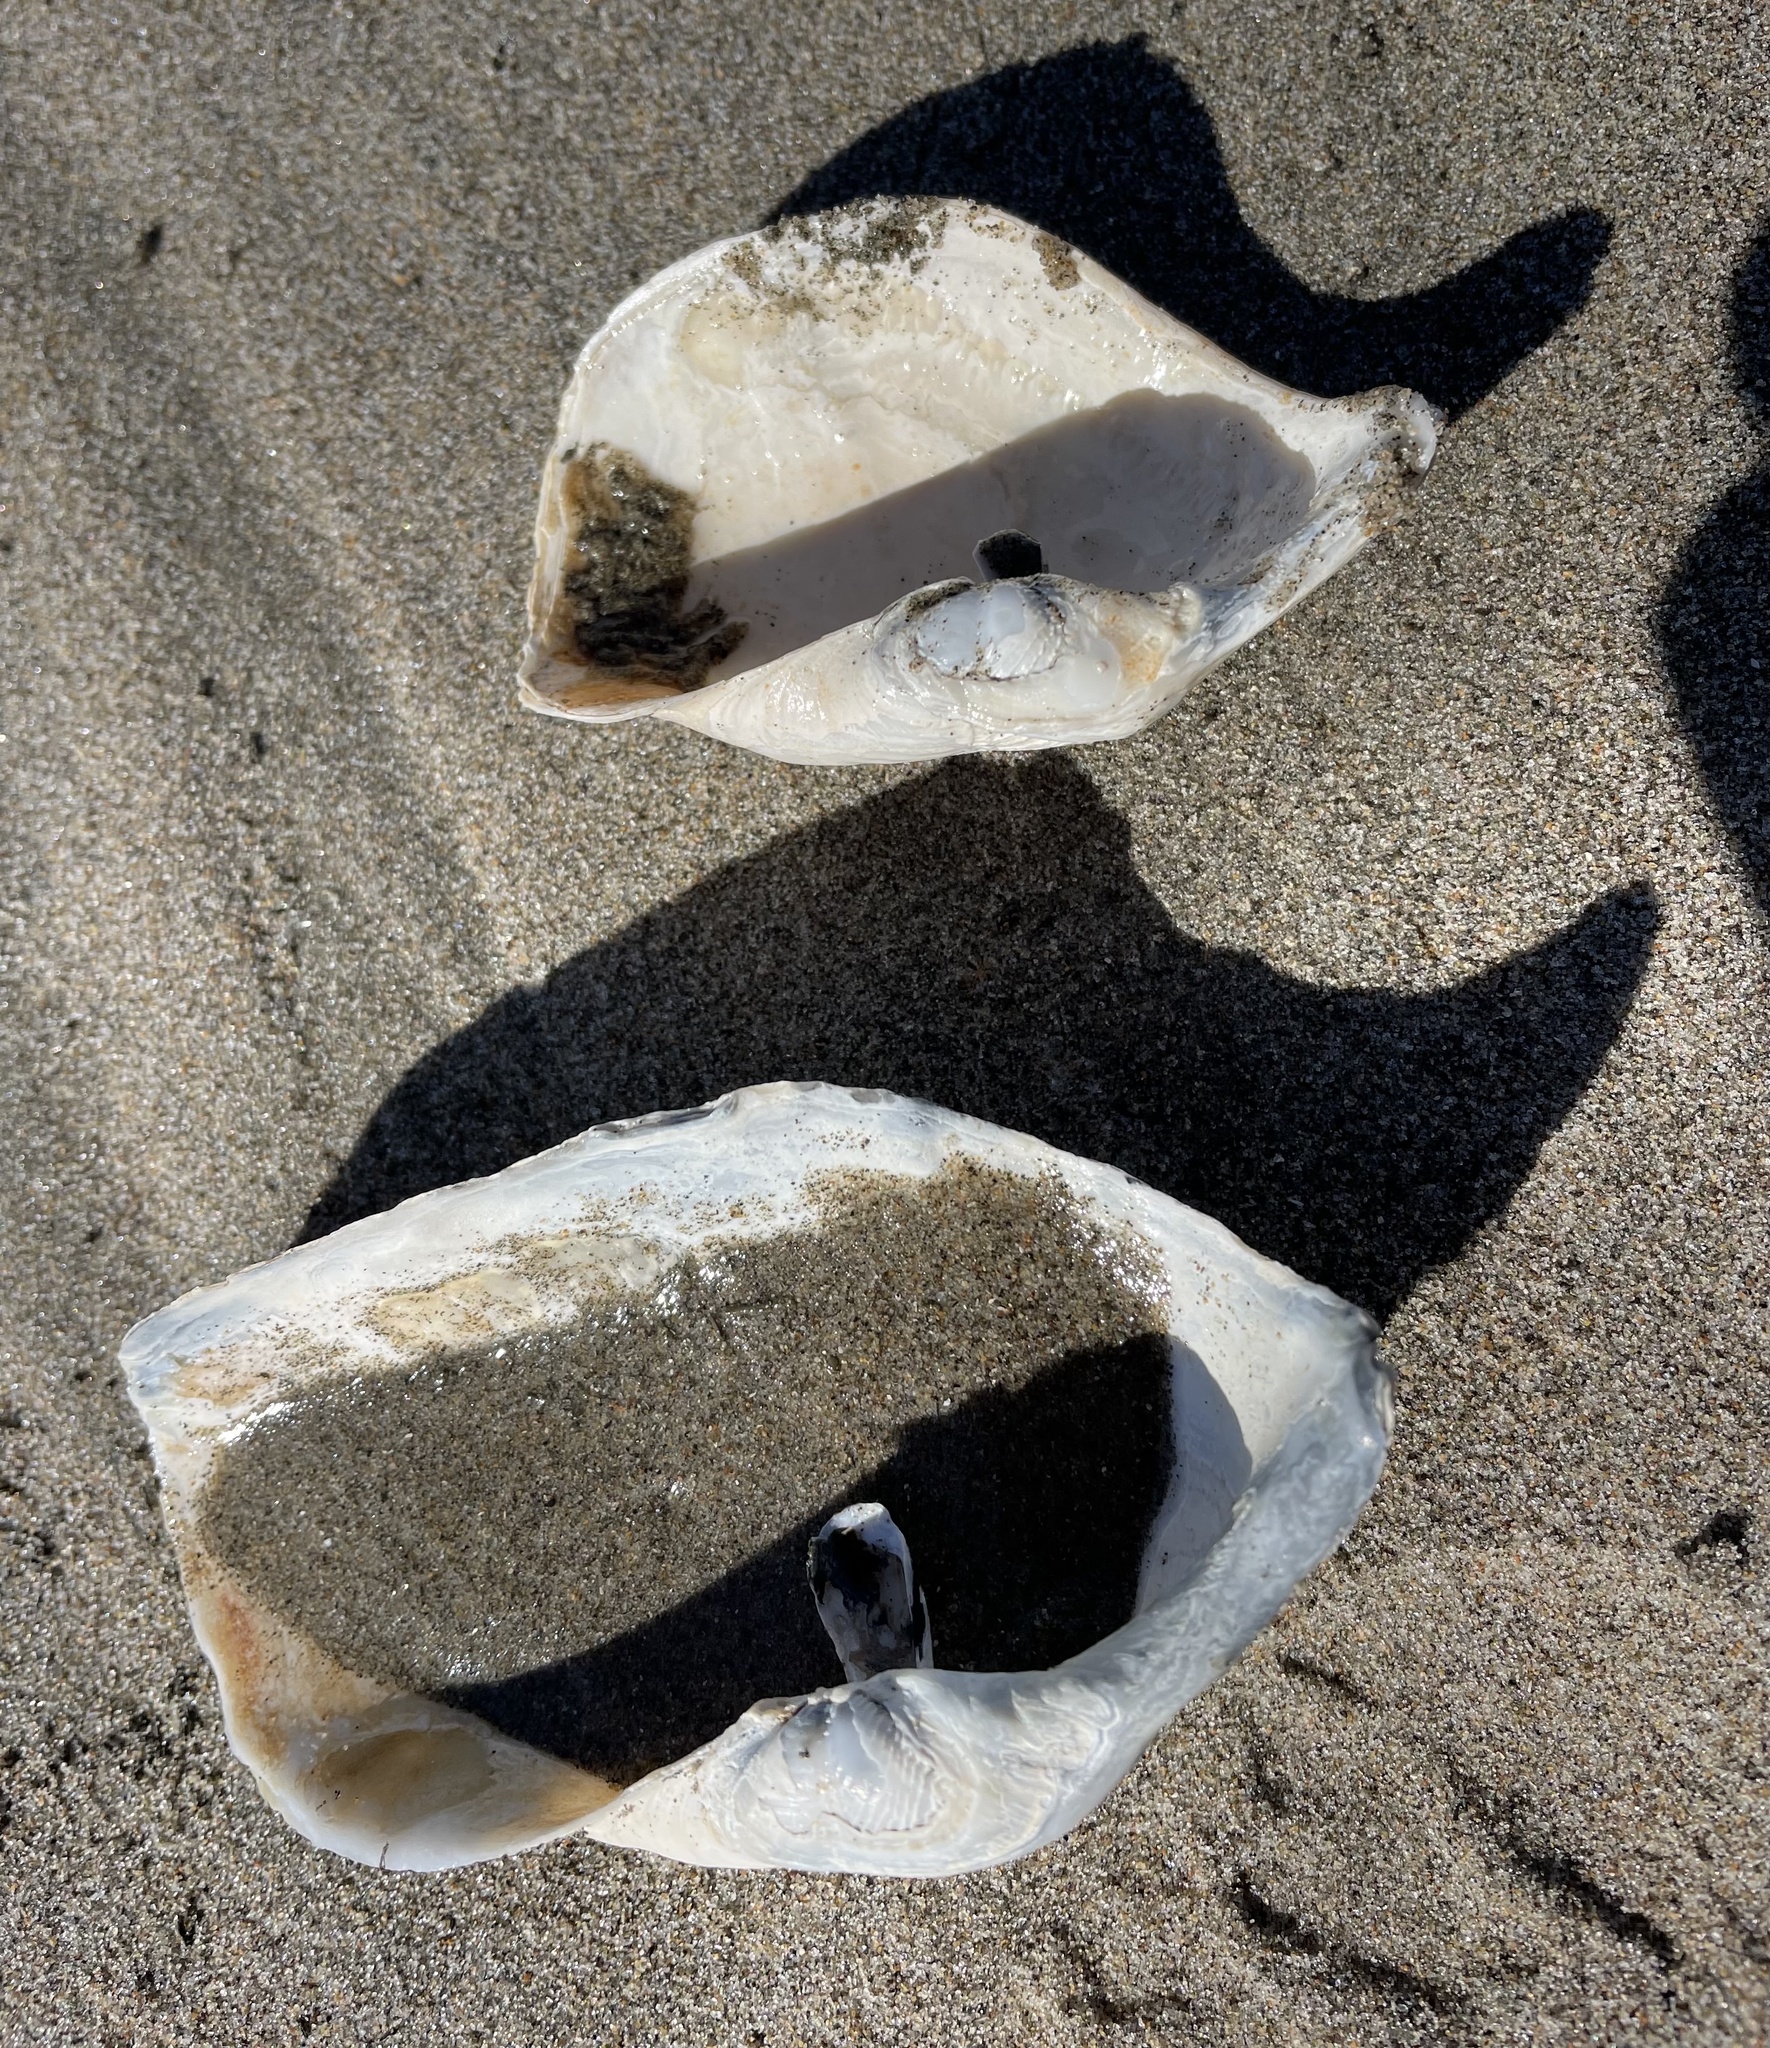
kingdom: Animalia
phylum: Mollusca
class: Bivalvia
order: Myida
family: Pholadidae
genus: Zirfaea
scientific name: Zirfaea pilsbryi
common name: Rough piddock
